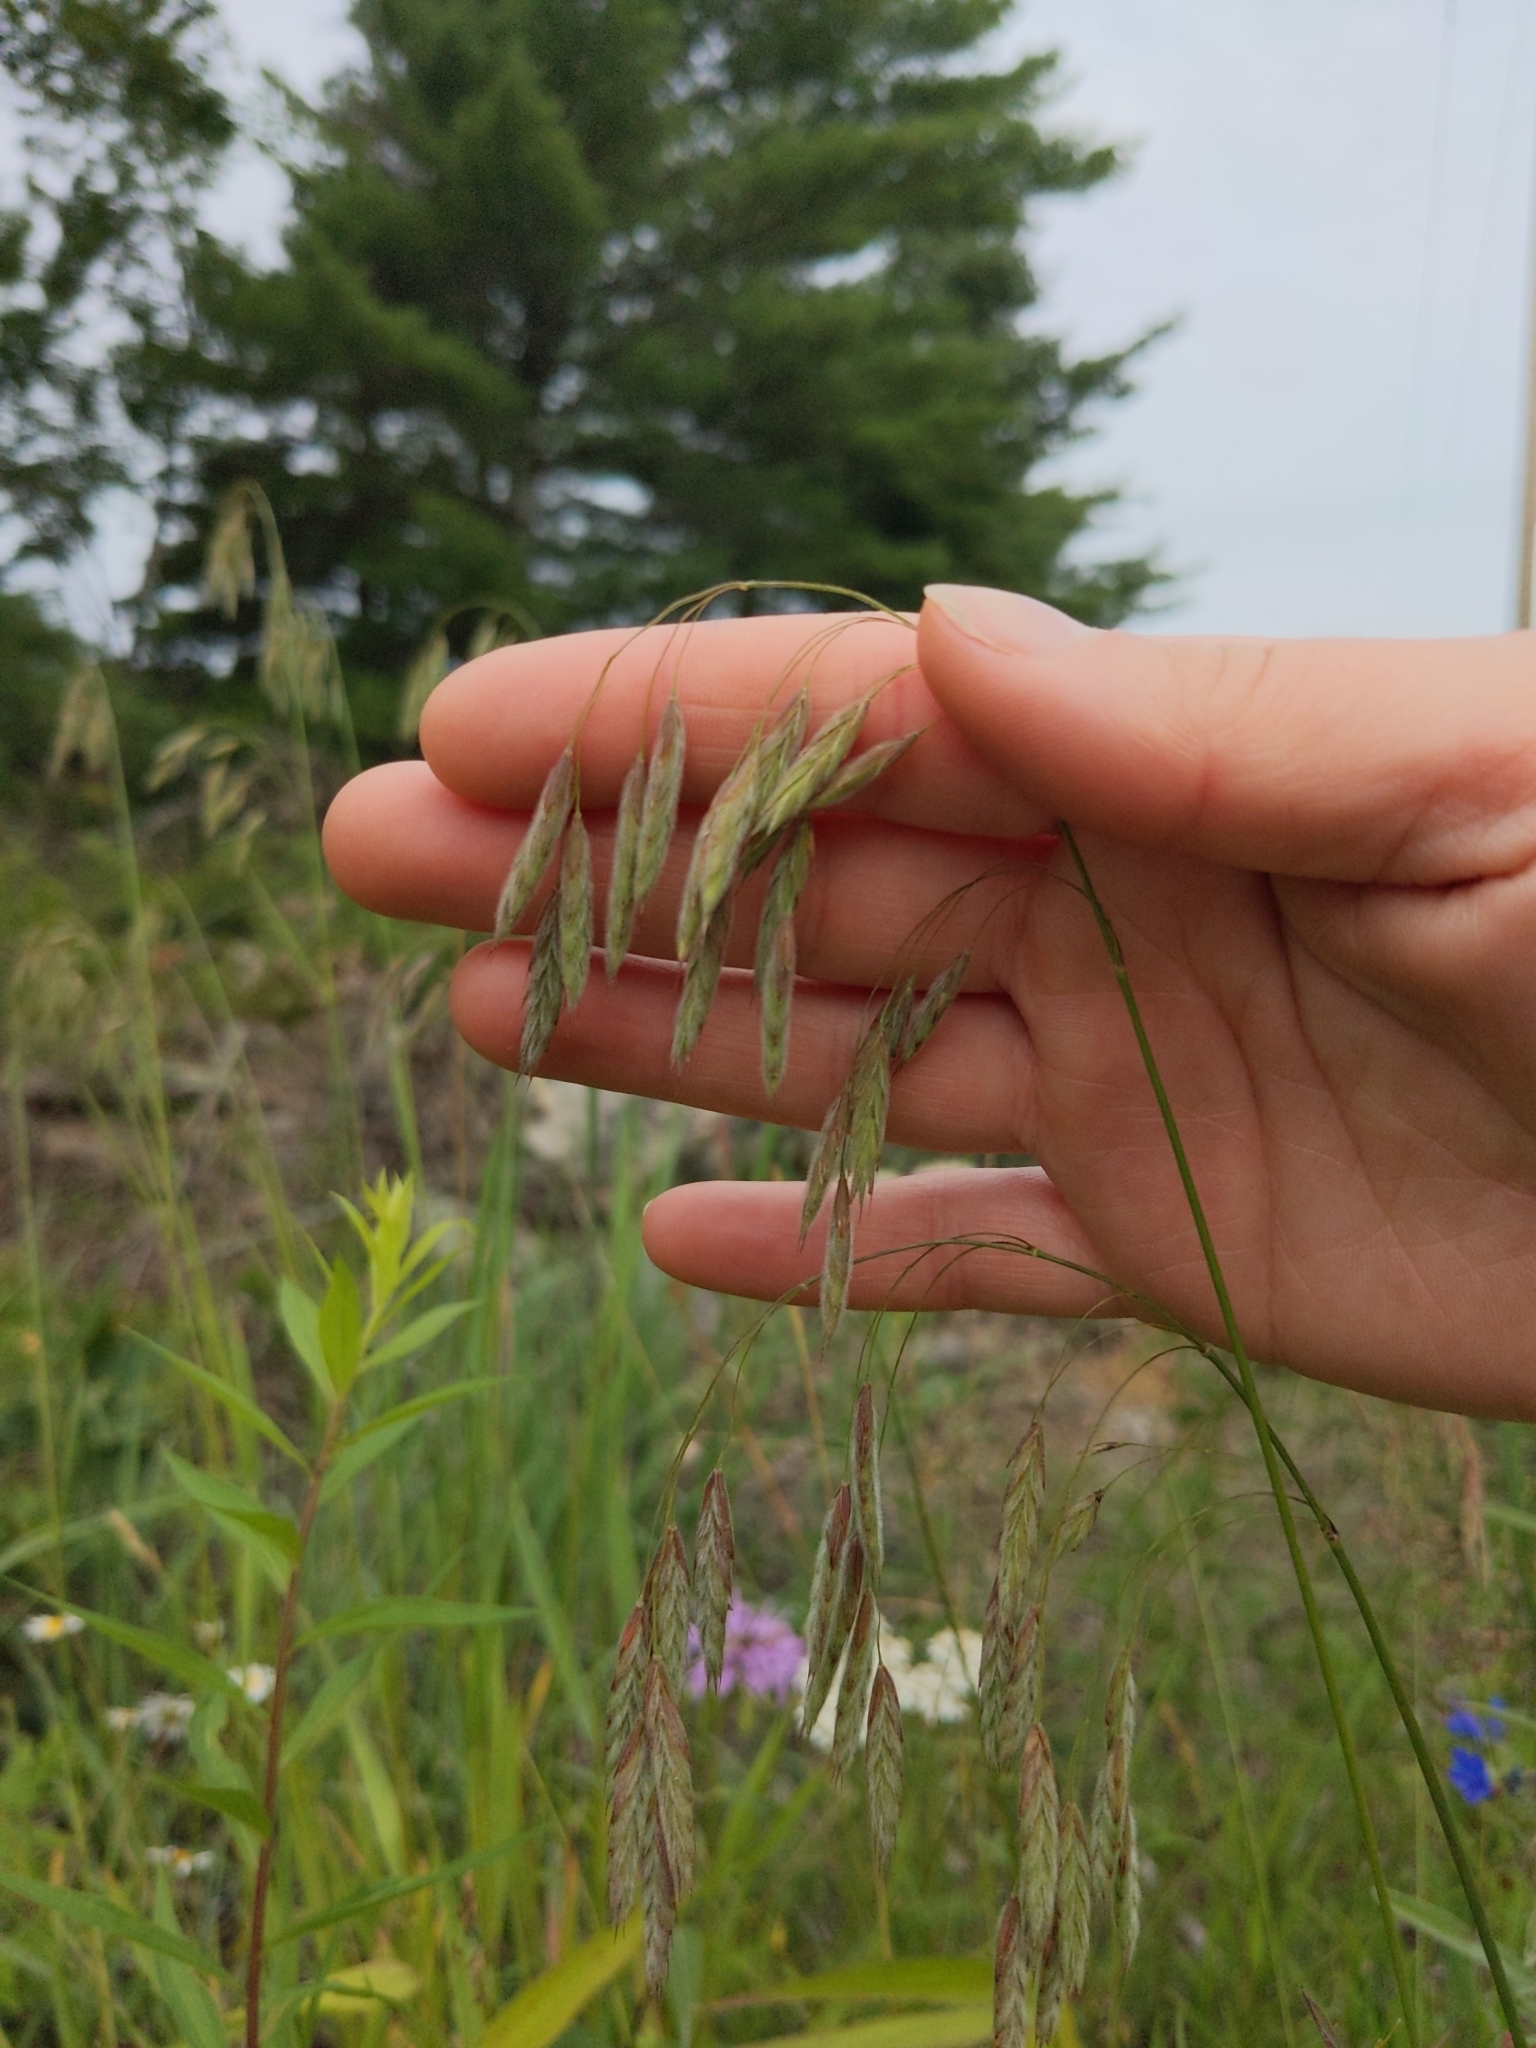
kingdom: Plantae
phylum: Tracheophyta
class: Liliopsida
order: Poales
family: Poaceae
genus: Bromus
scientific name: Bromus kalmii
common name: Kalm brome
